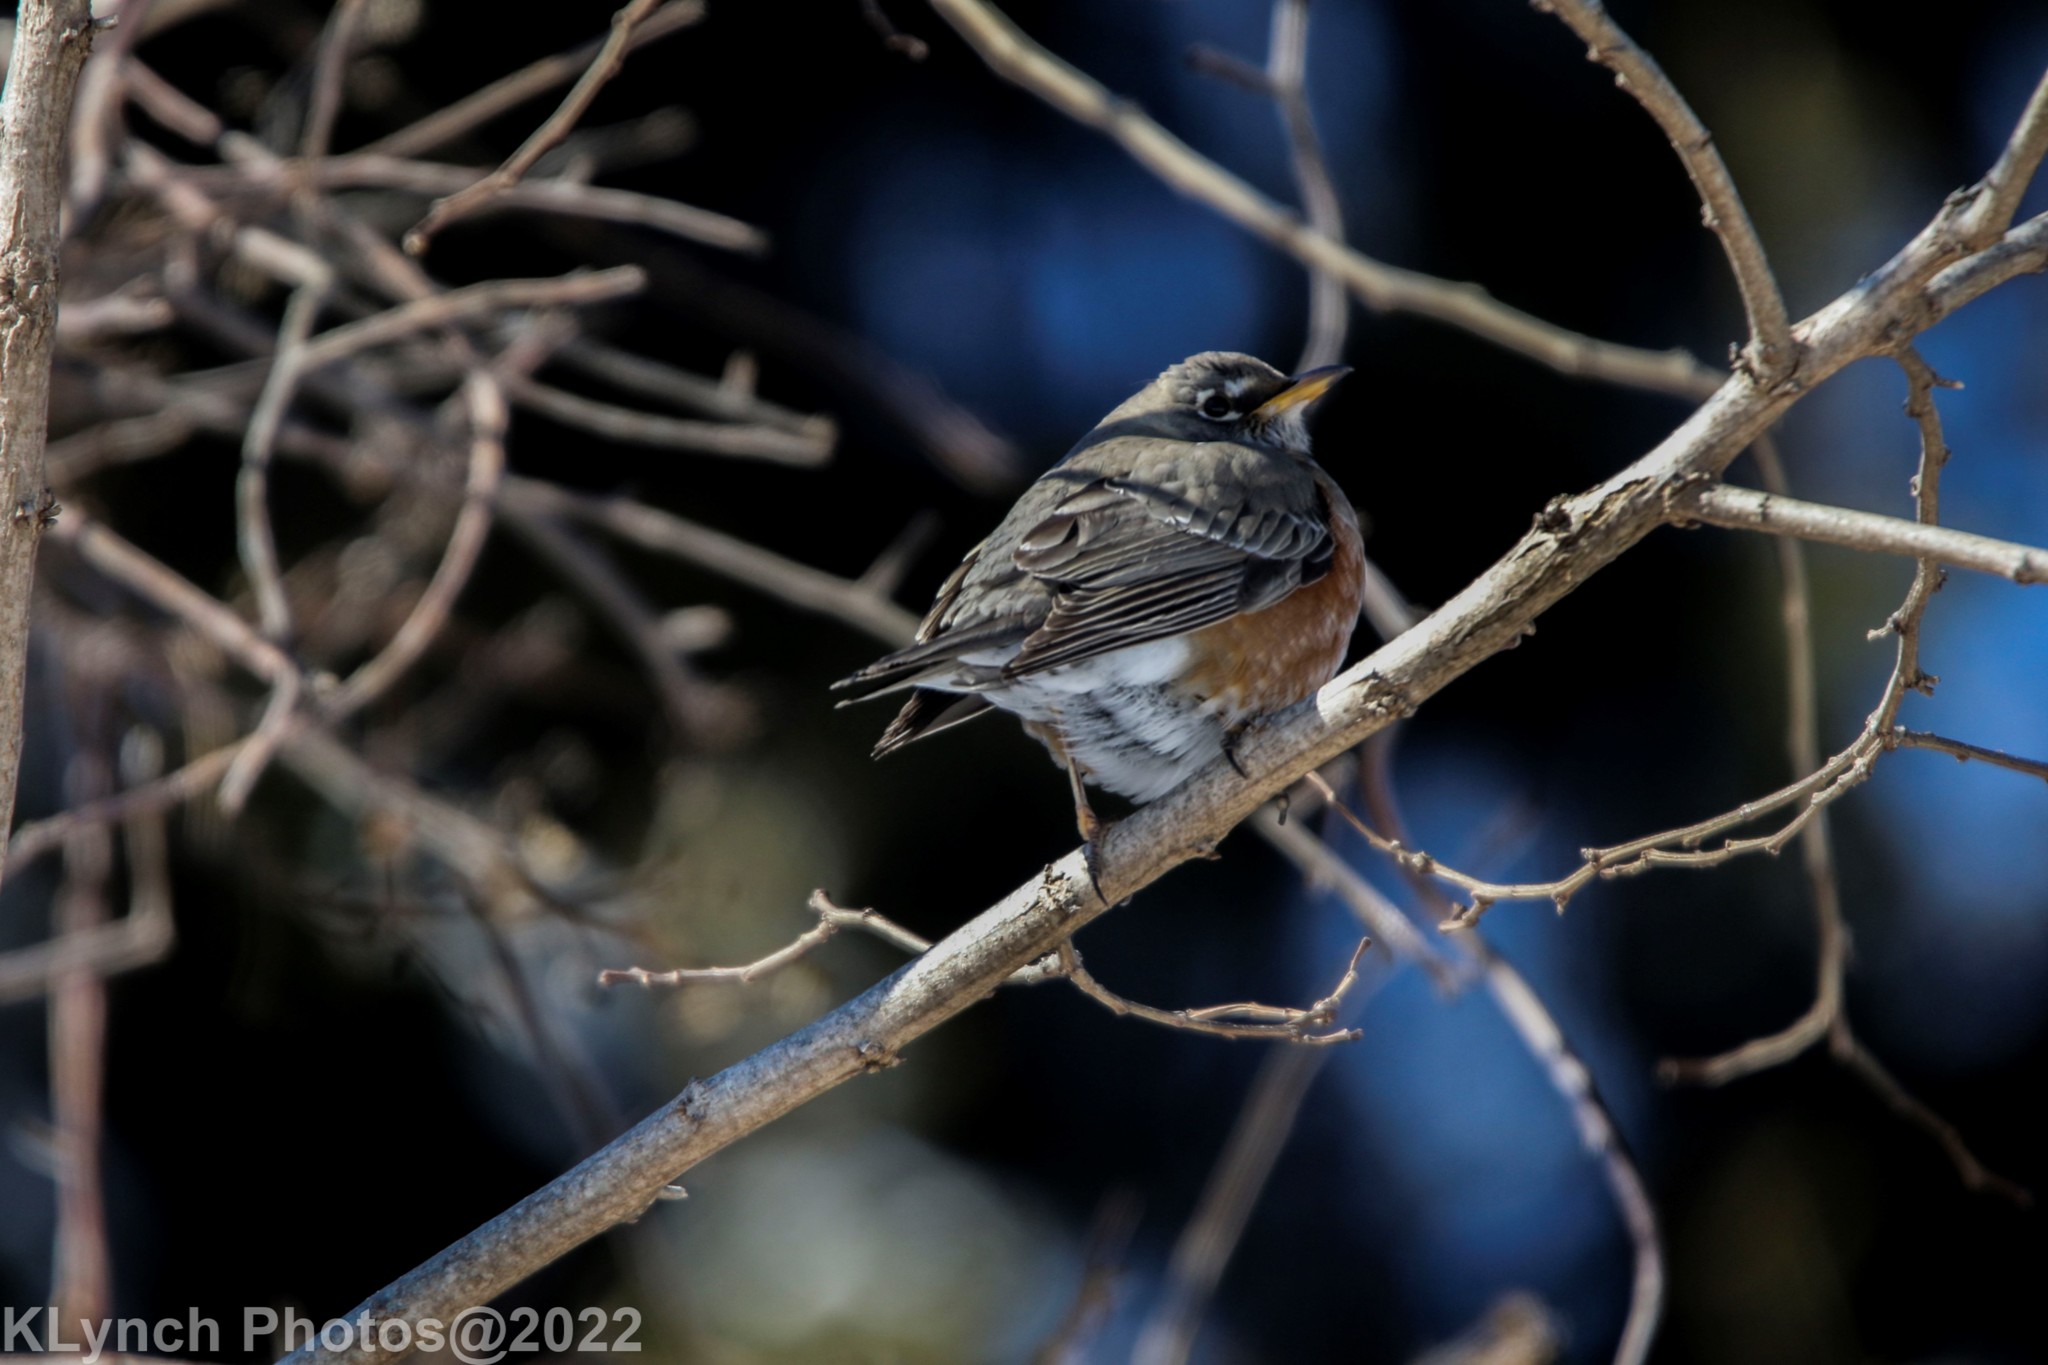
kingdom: Animalia
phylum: Chordata
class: Aves
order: Passeriformes
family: Turdidae
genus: Turdus
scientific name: Turdus migratorius
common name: American robin
